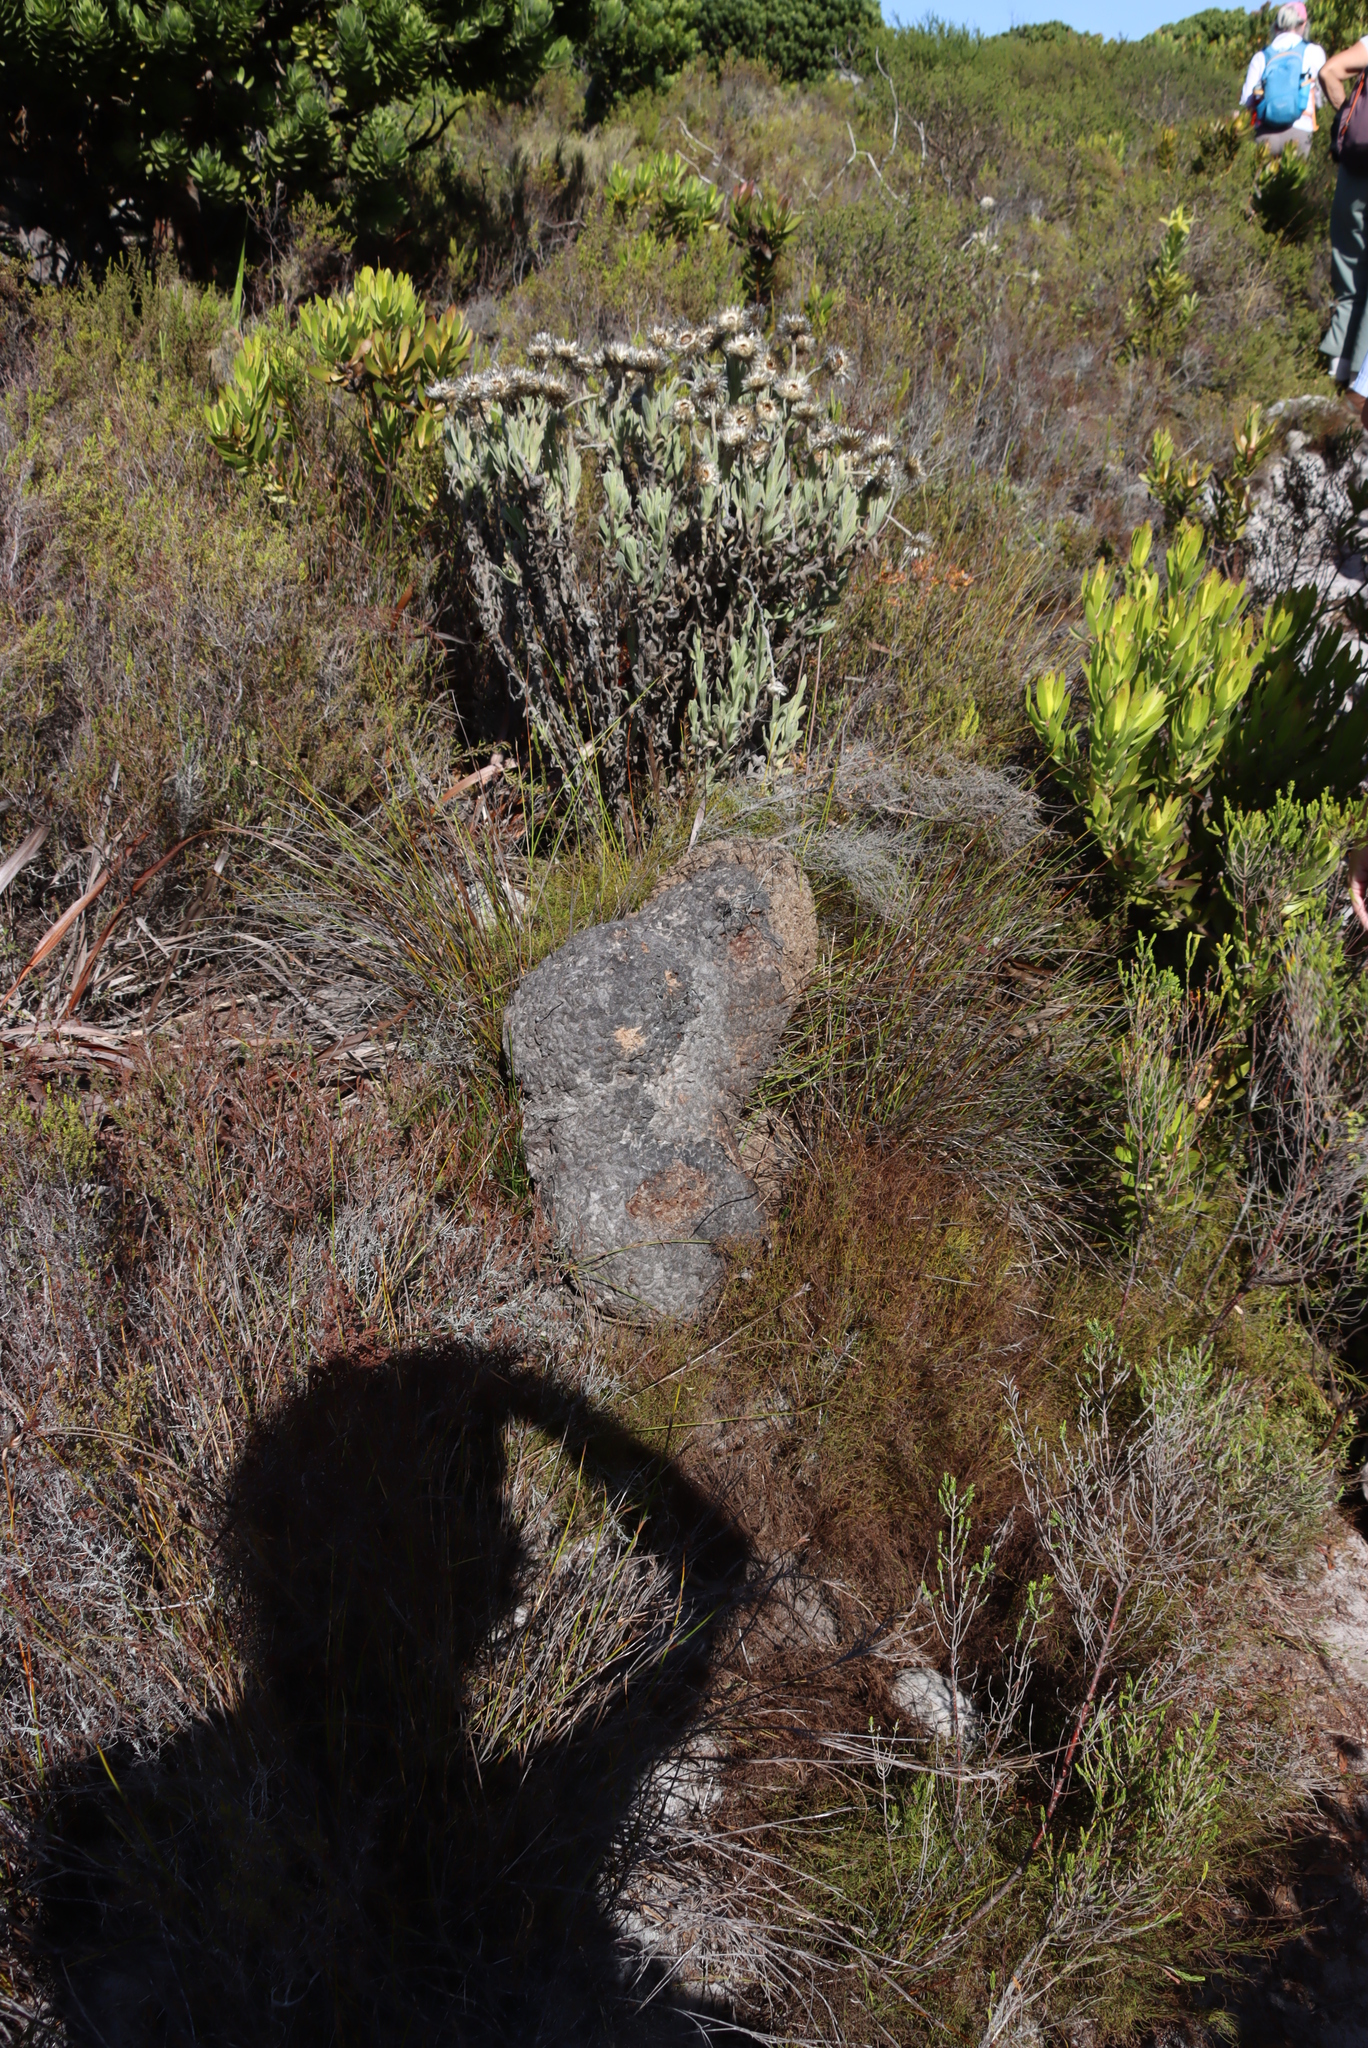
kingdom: Plantae
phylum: Tracheophyta
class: Magnoliopsida
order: Asterales
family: Asteraceae
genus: Syncarpha
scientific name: Syncarpha vestita
